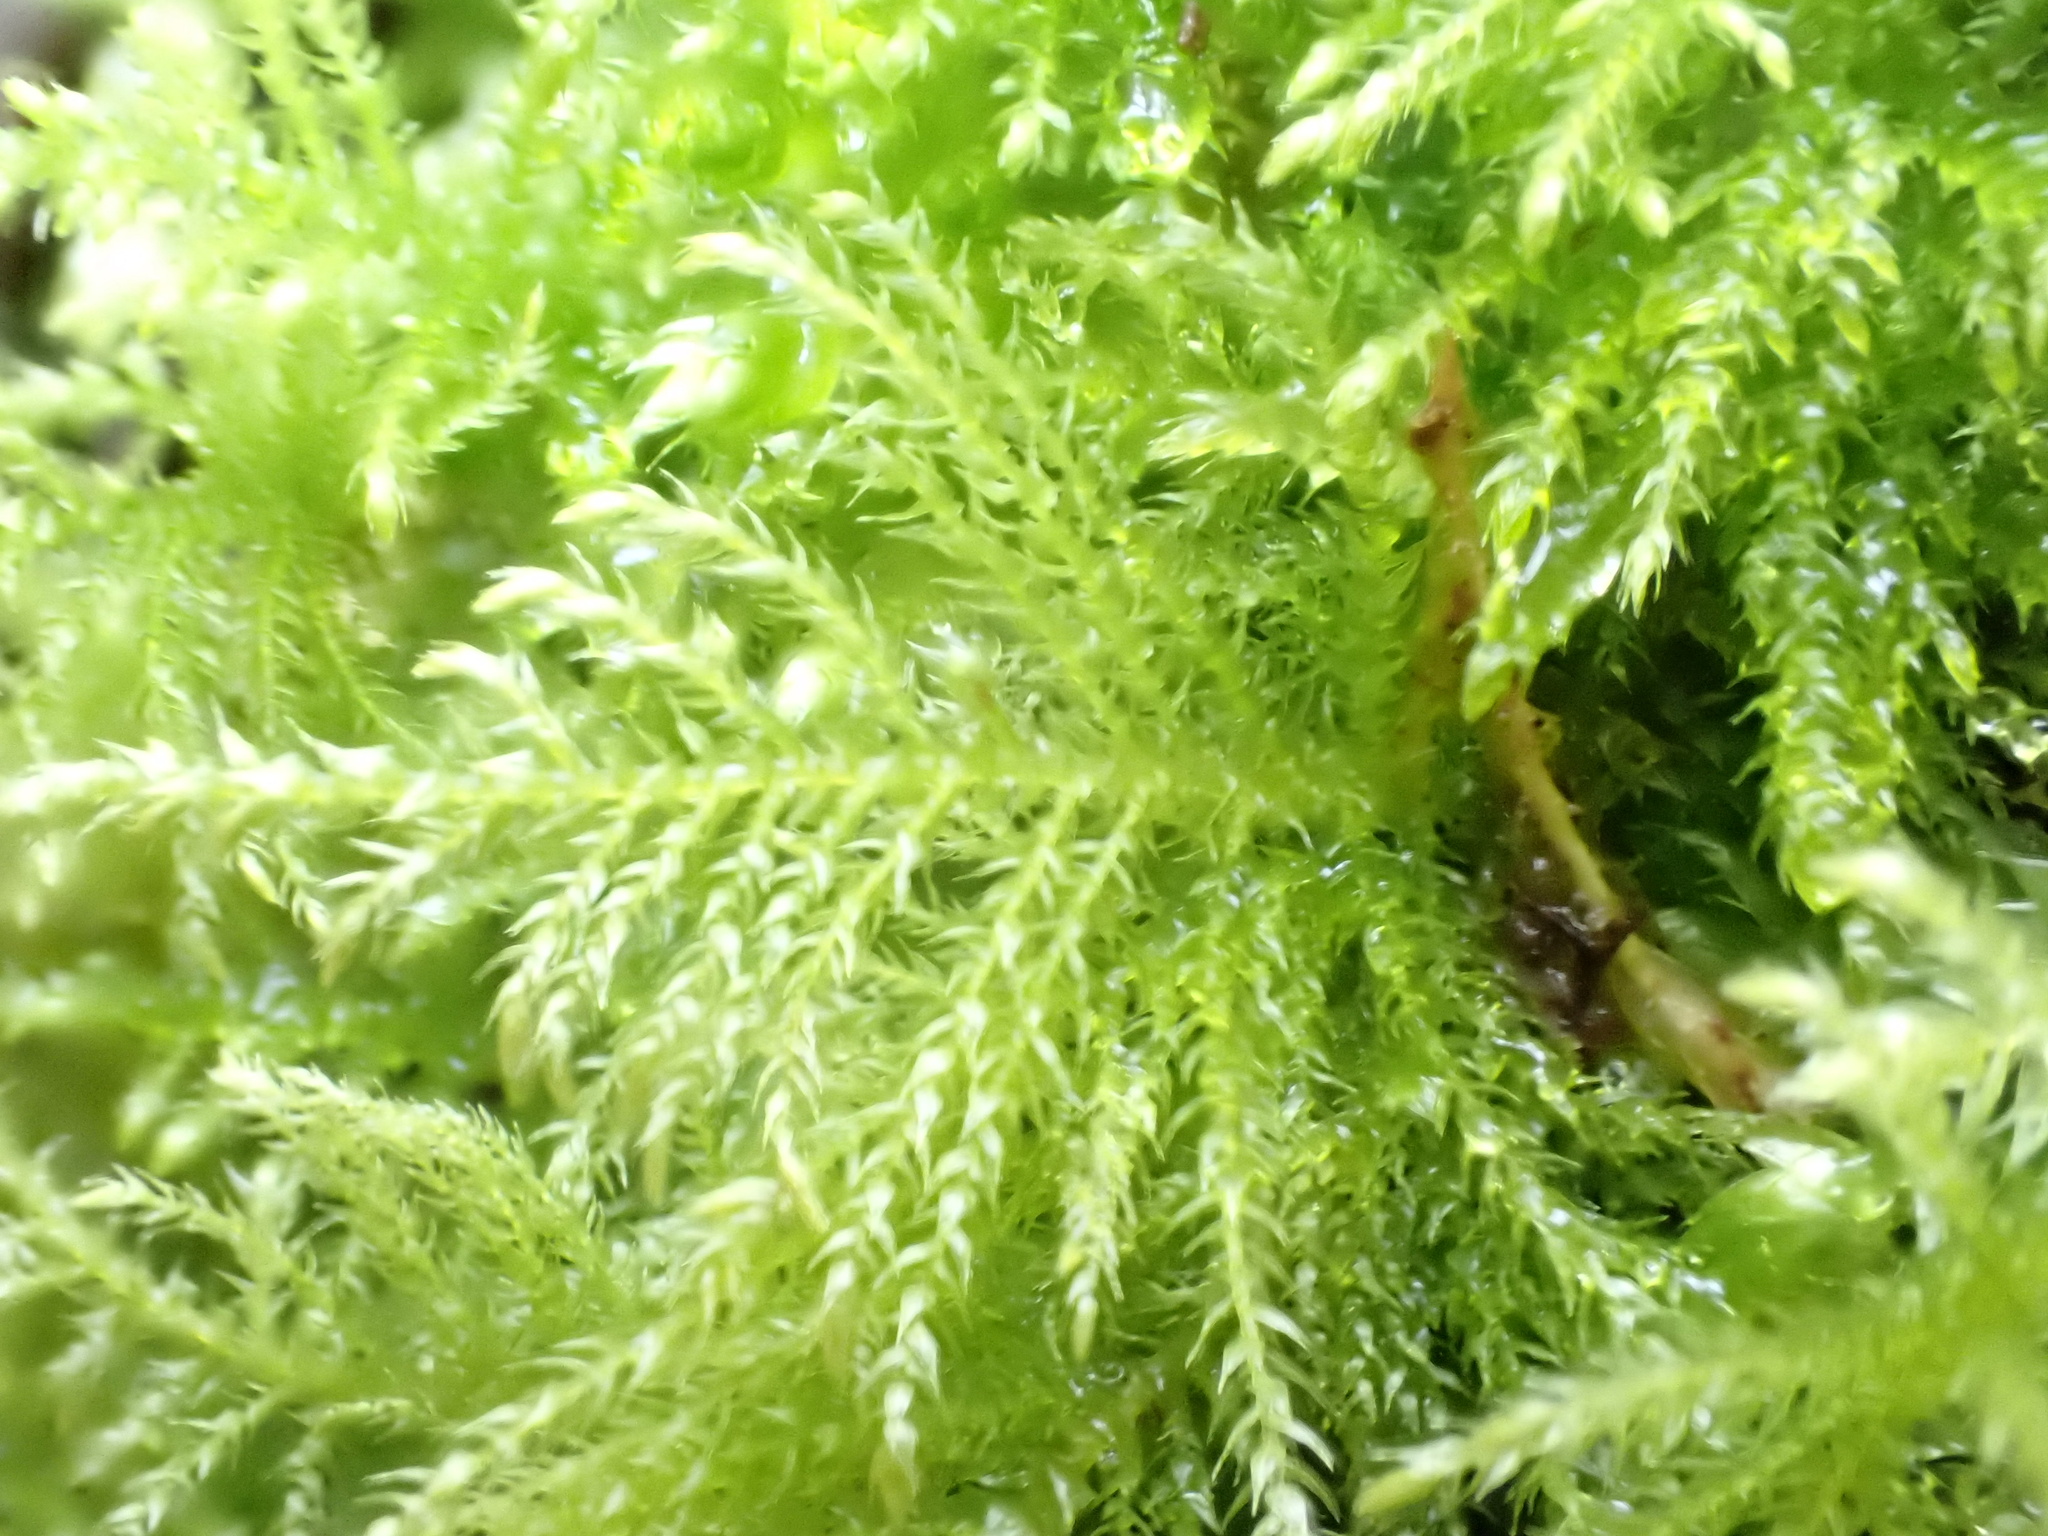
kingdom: Plantae
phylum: Bryophyta
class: Bryopsida
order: Hypnales
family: Brachytheciaceae
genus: Kindbergia
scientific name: Kindbergia praelonga
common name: Slender beaked moss
